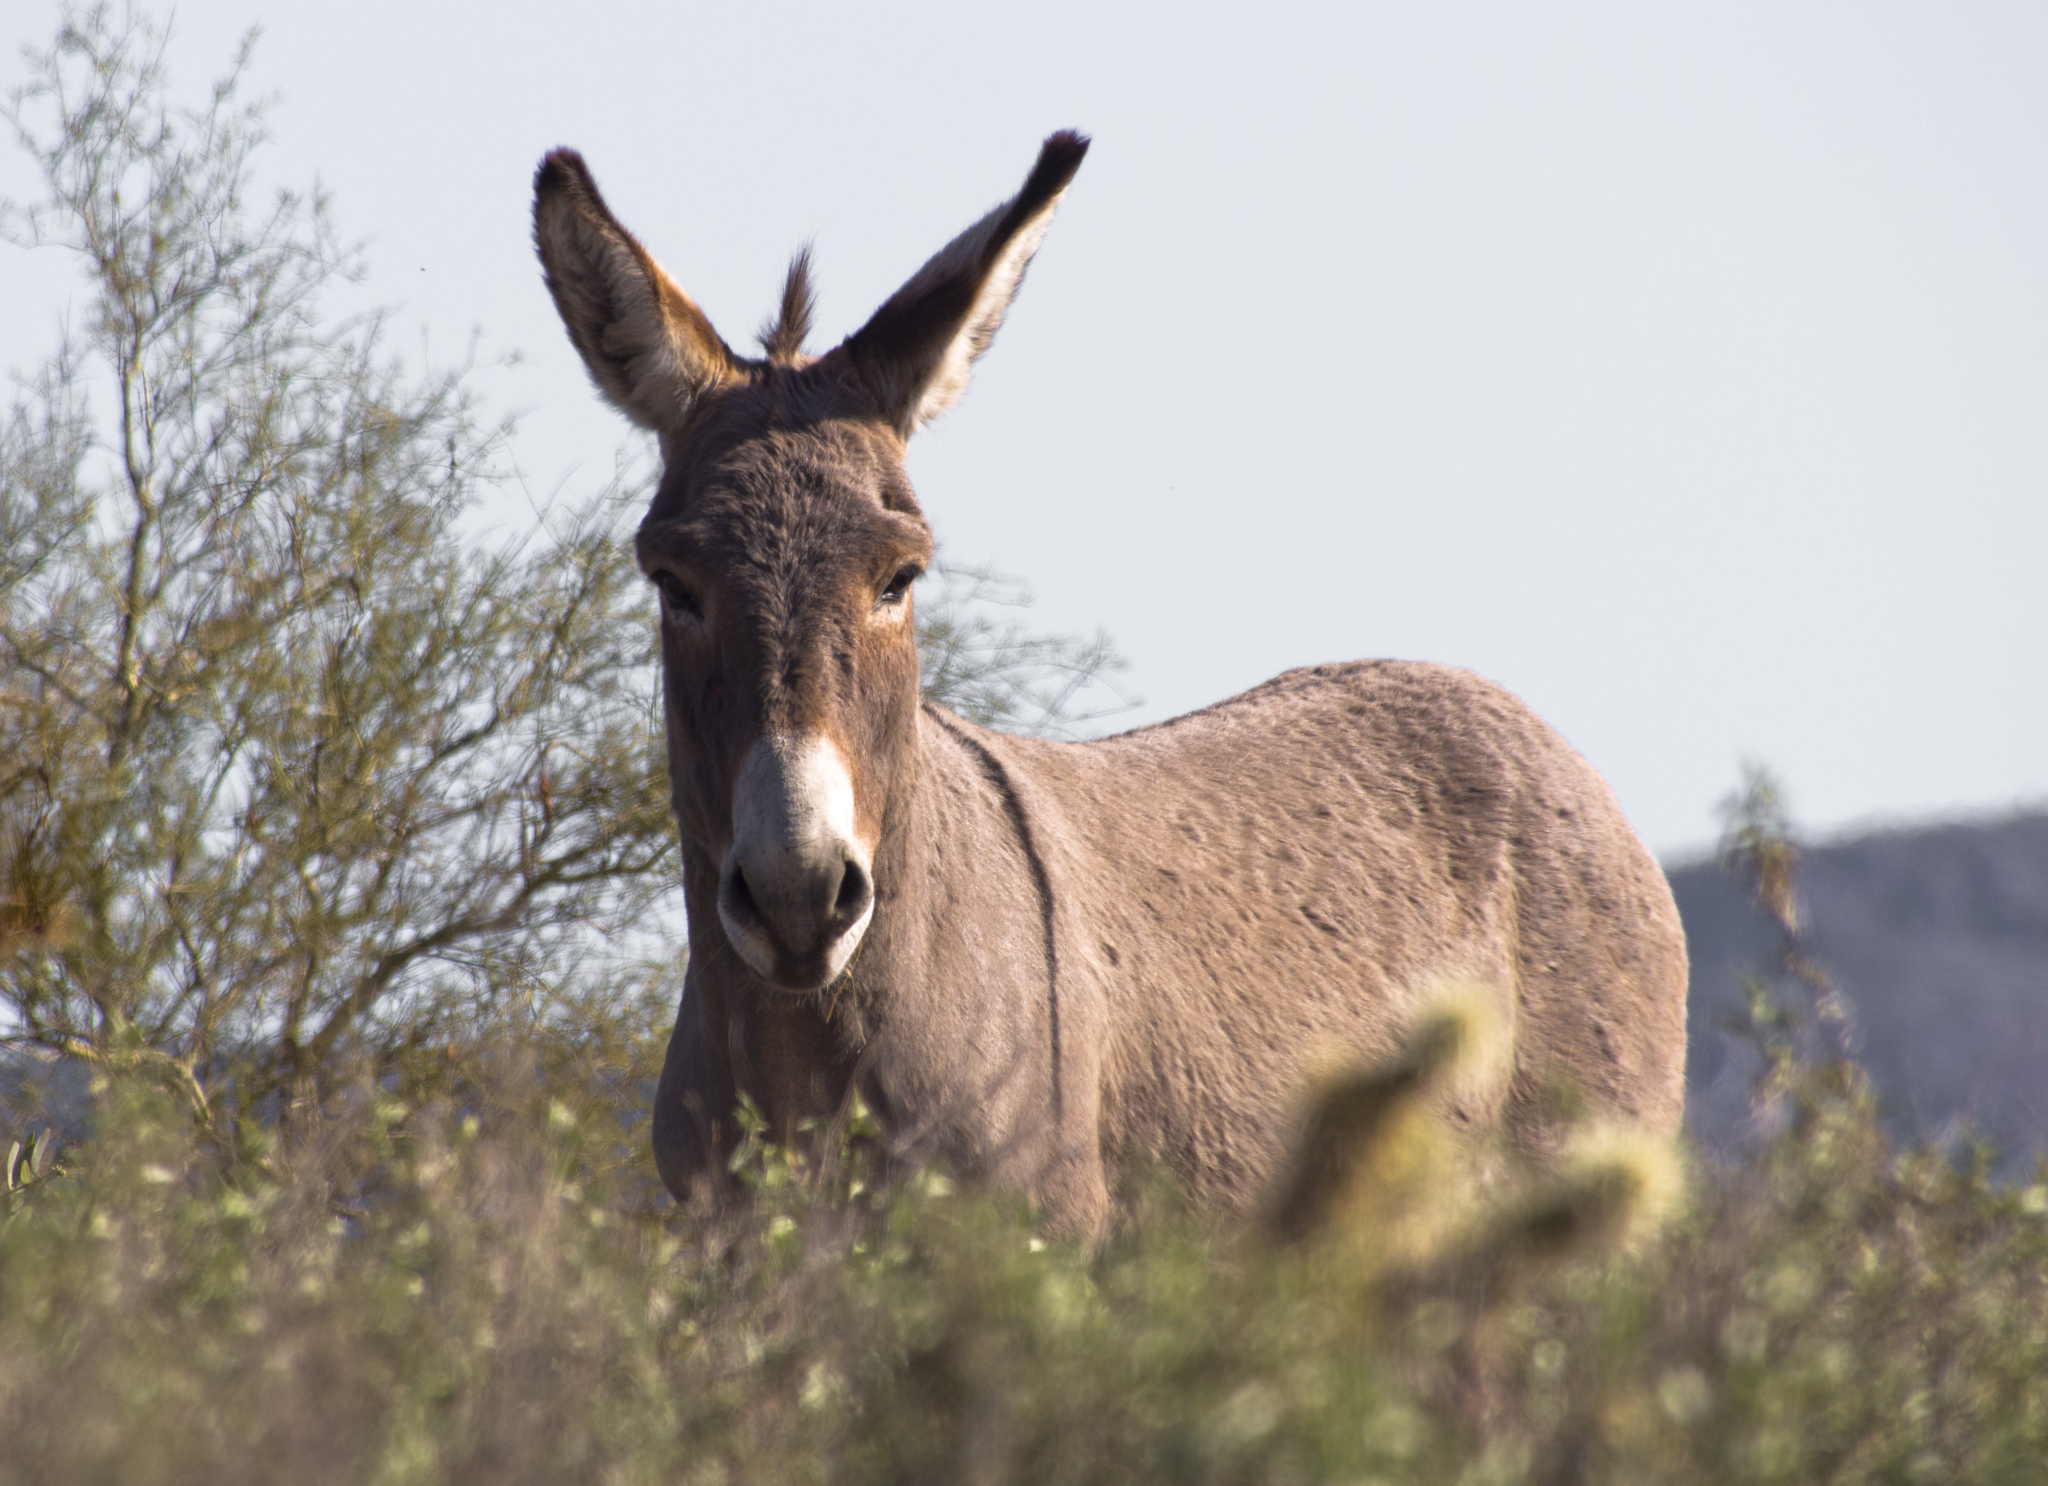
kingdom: Animalia
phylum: Chordata
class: Mammalia
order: Perissodactyla
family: Equidae
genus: Equus
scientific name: Equus asinus
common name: Ass
